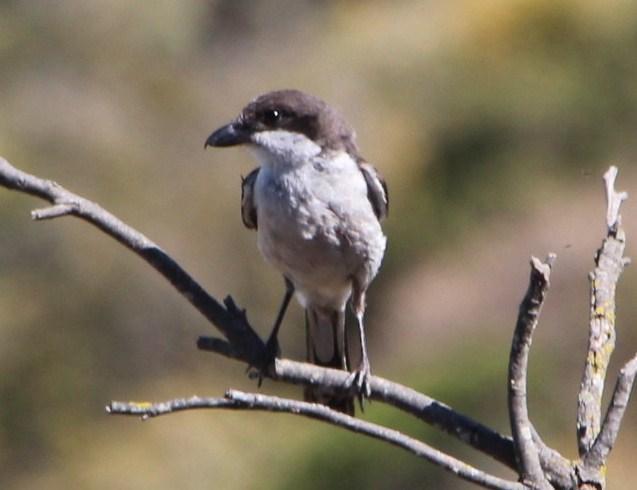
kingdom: Animalia
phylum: Chordata
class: Aves
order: Passeriformes
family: Laniidae
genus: Lanius
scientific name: Lanius collaris
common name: Southern fiscal
